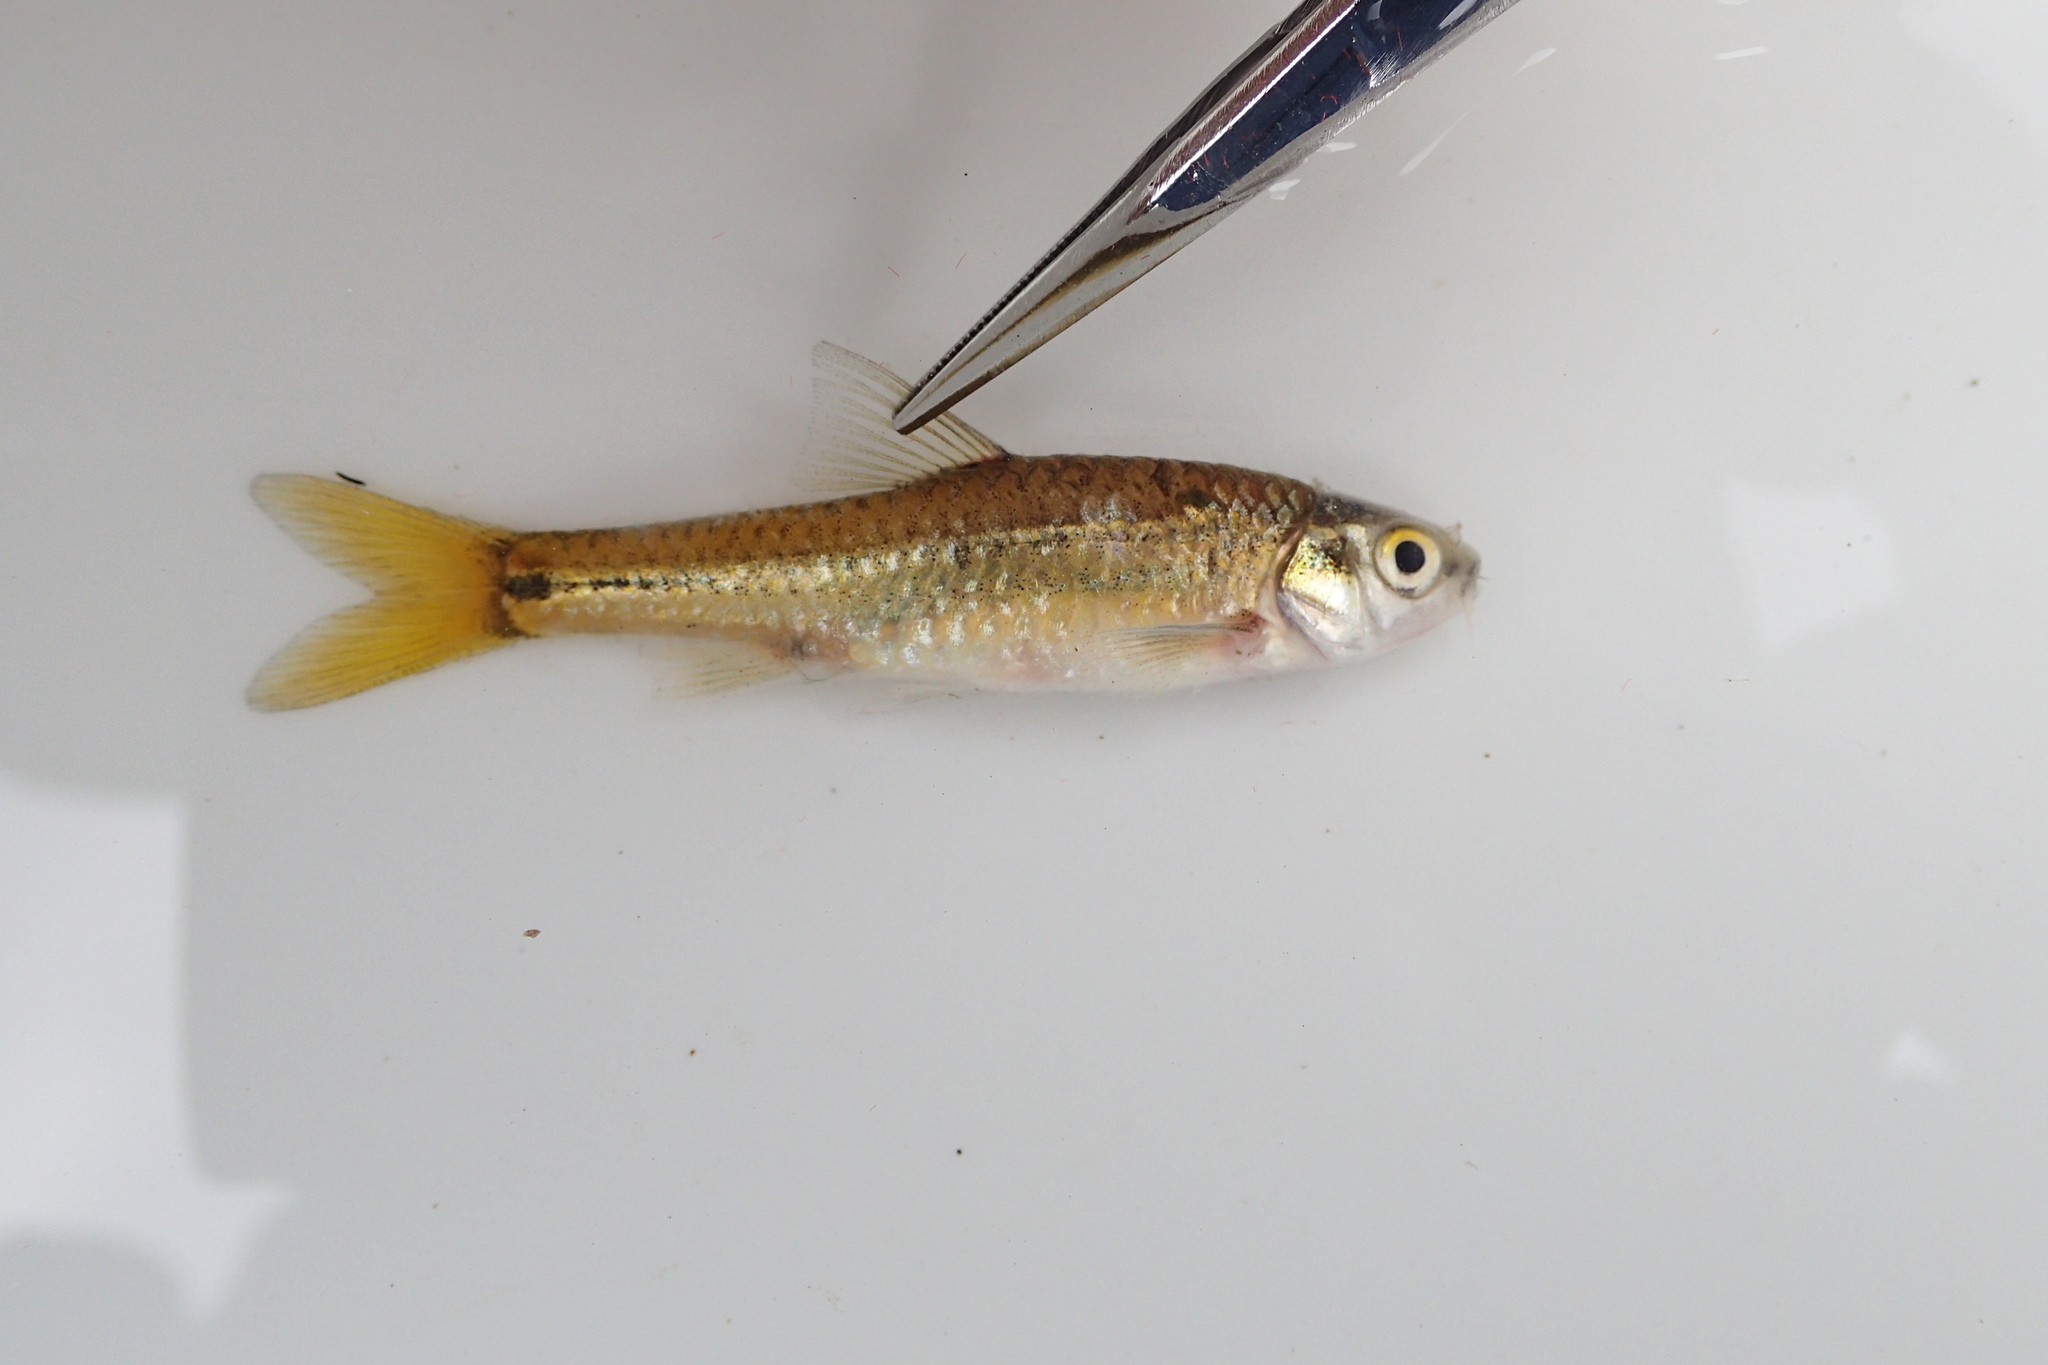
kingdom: Animalia
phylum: Chordata
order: Cypriniformes
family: Cyprinidae
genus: Enteromius
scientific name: Enteromius annectens
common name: Broadstriped barb
